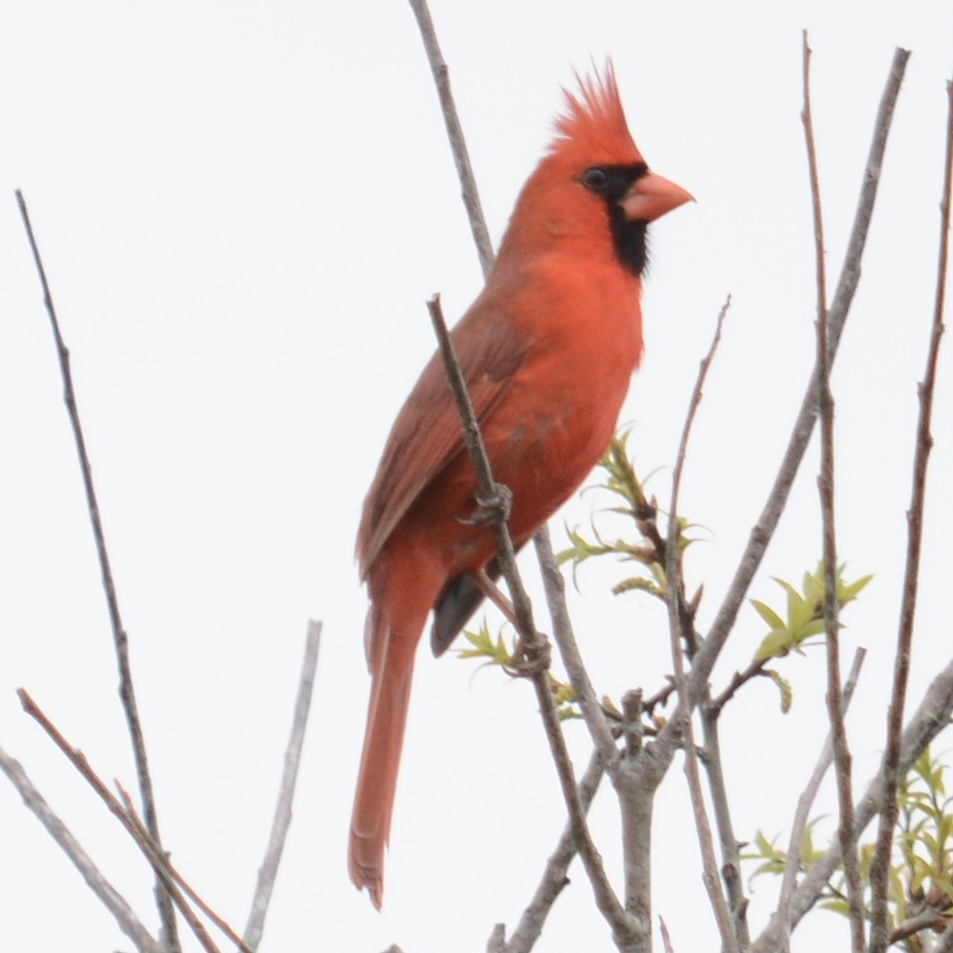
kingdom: Animalia
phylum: Chordata
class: Aves
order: Passeriformes
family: Cardinalidae
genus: Cardinalis
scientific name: Cardinalis cardinalis
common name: Northern cardinal
